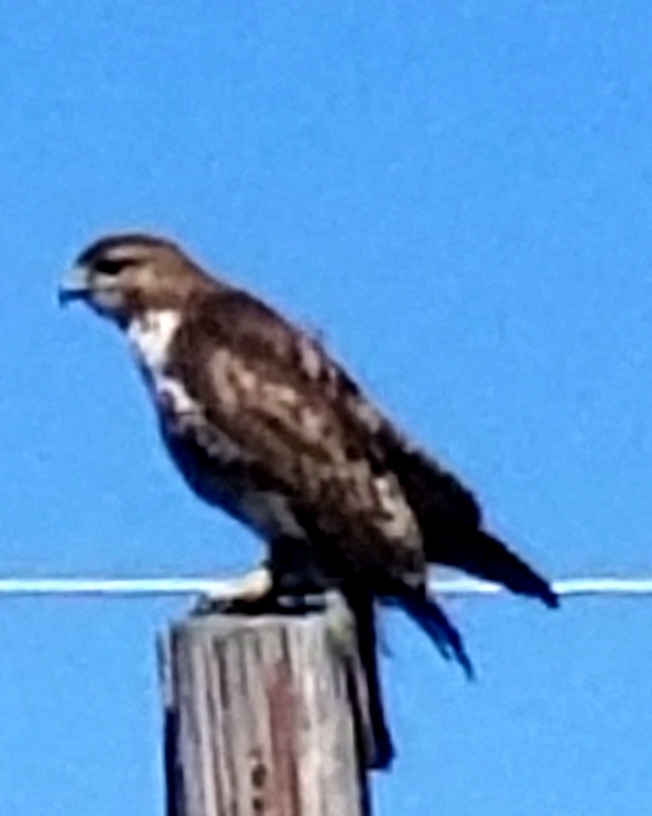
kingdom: Animalia
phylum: Chordata
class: Aves
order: Accipitriformes
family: Accipitridae
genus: Buteo
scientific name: Buteo jamaicensis
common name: Red-tailed hawk
